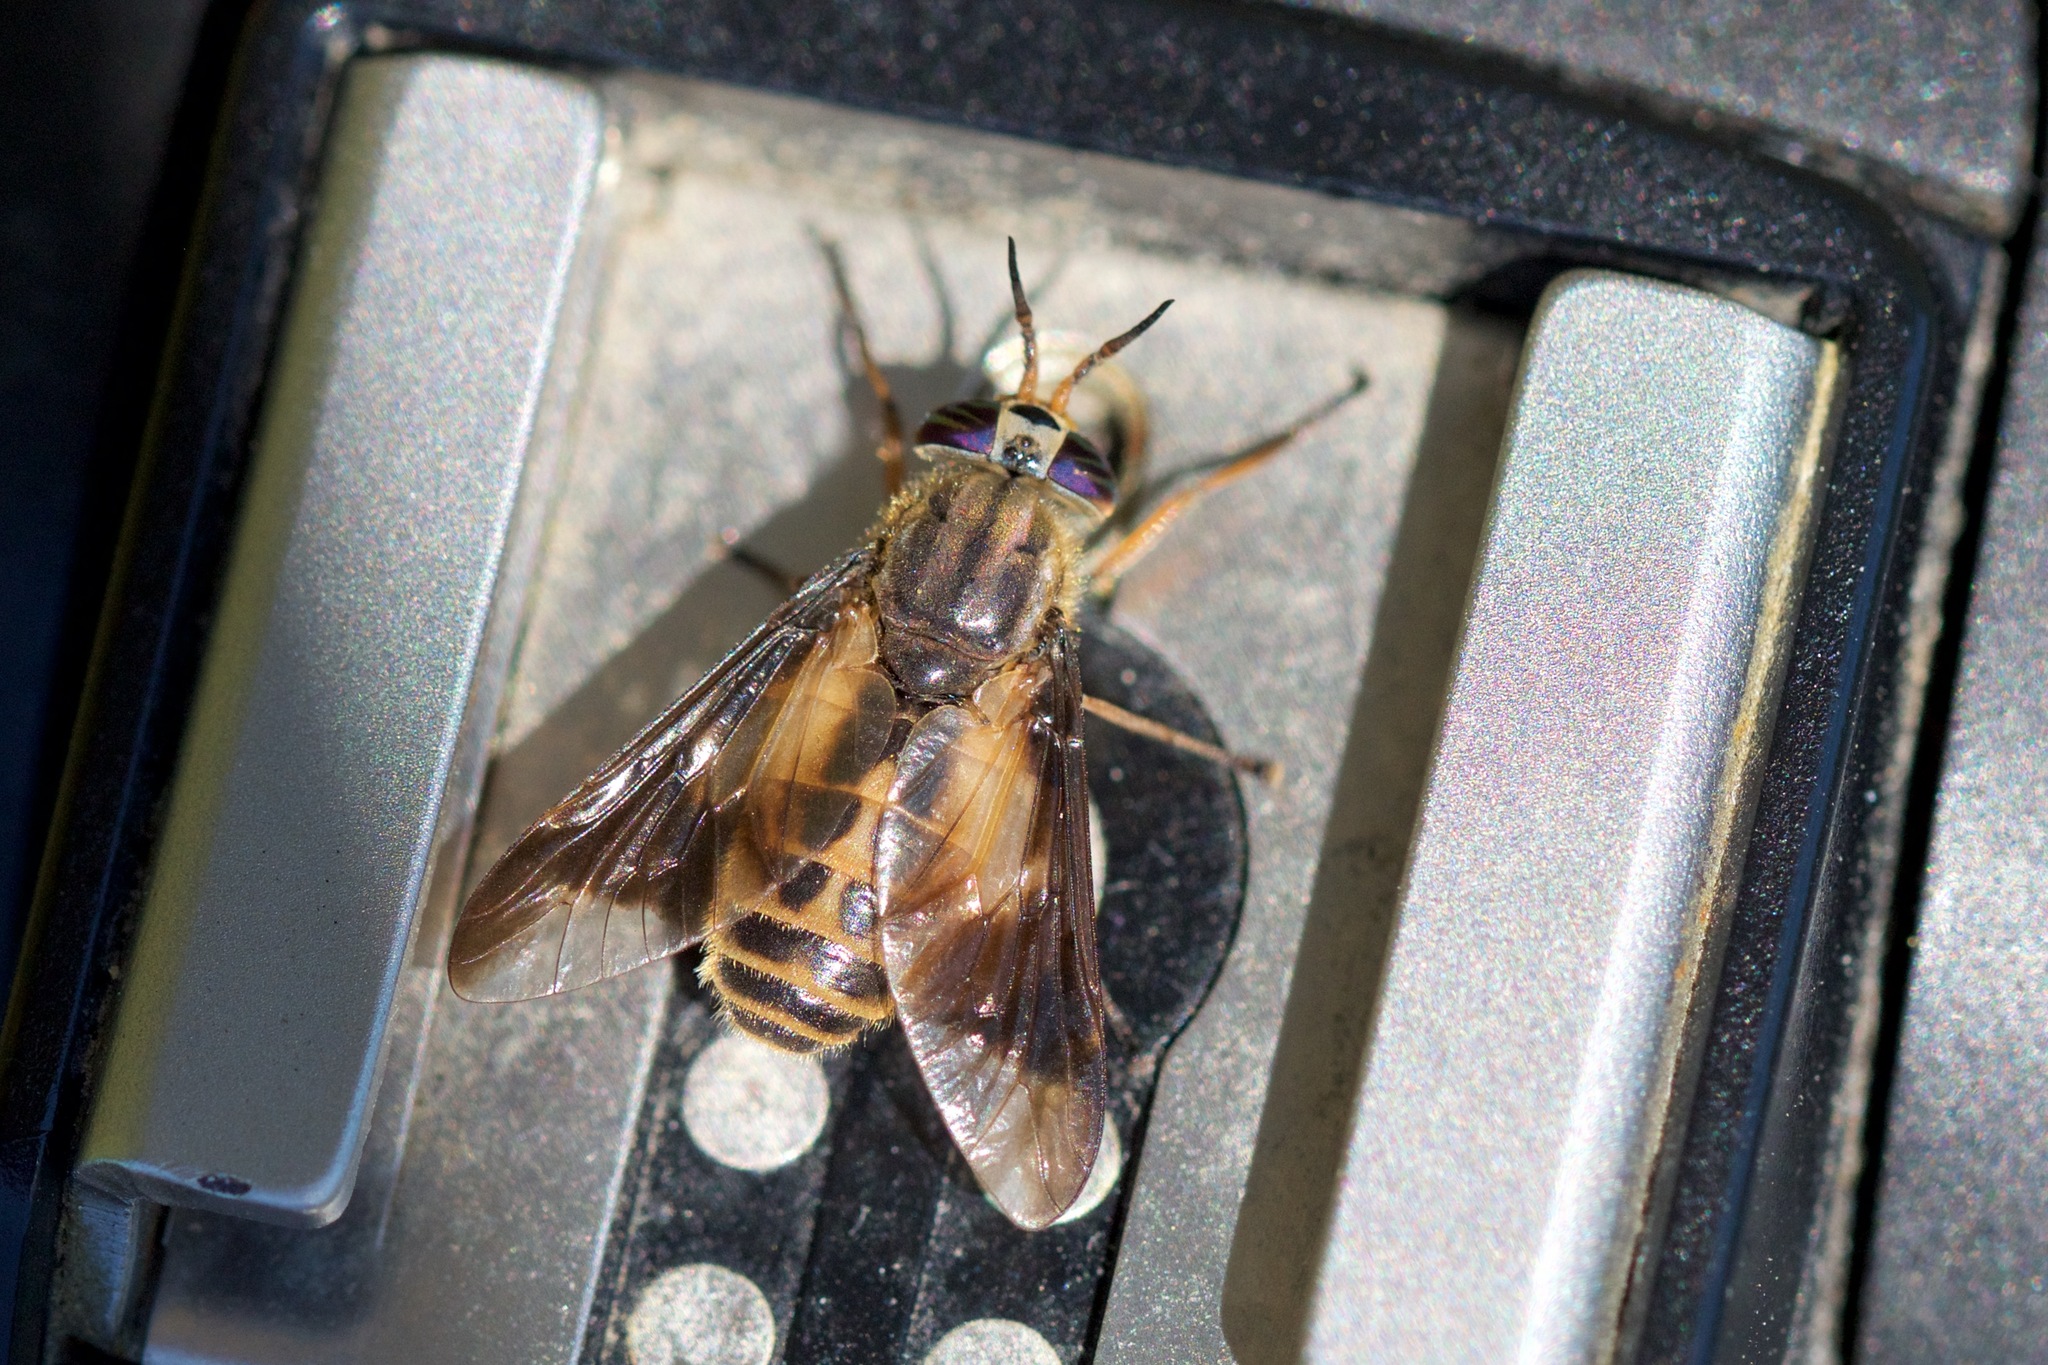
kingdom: Animalia
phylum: Arthropoda
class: Insecta
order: Diptera
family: Tabanidae
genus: Chrysops
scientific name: Chrysops indus
